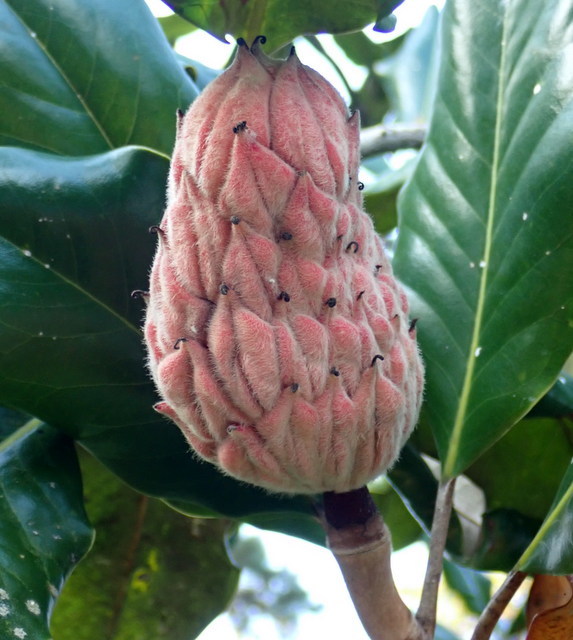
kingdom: Plantae
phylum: Tracheophyta
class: Magnoliopsida
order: Magnoliales
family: Magnoliaceae
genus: Magnolia
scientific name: Magnolia grandiflora
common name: Southern magnolia
